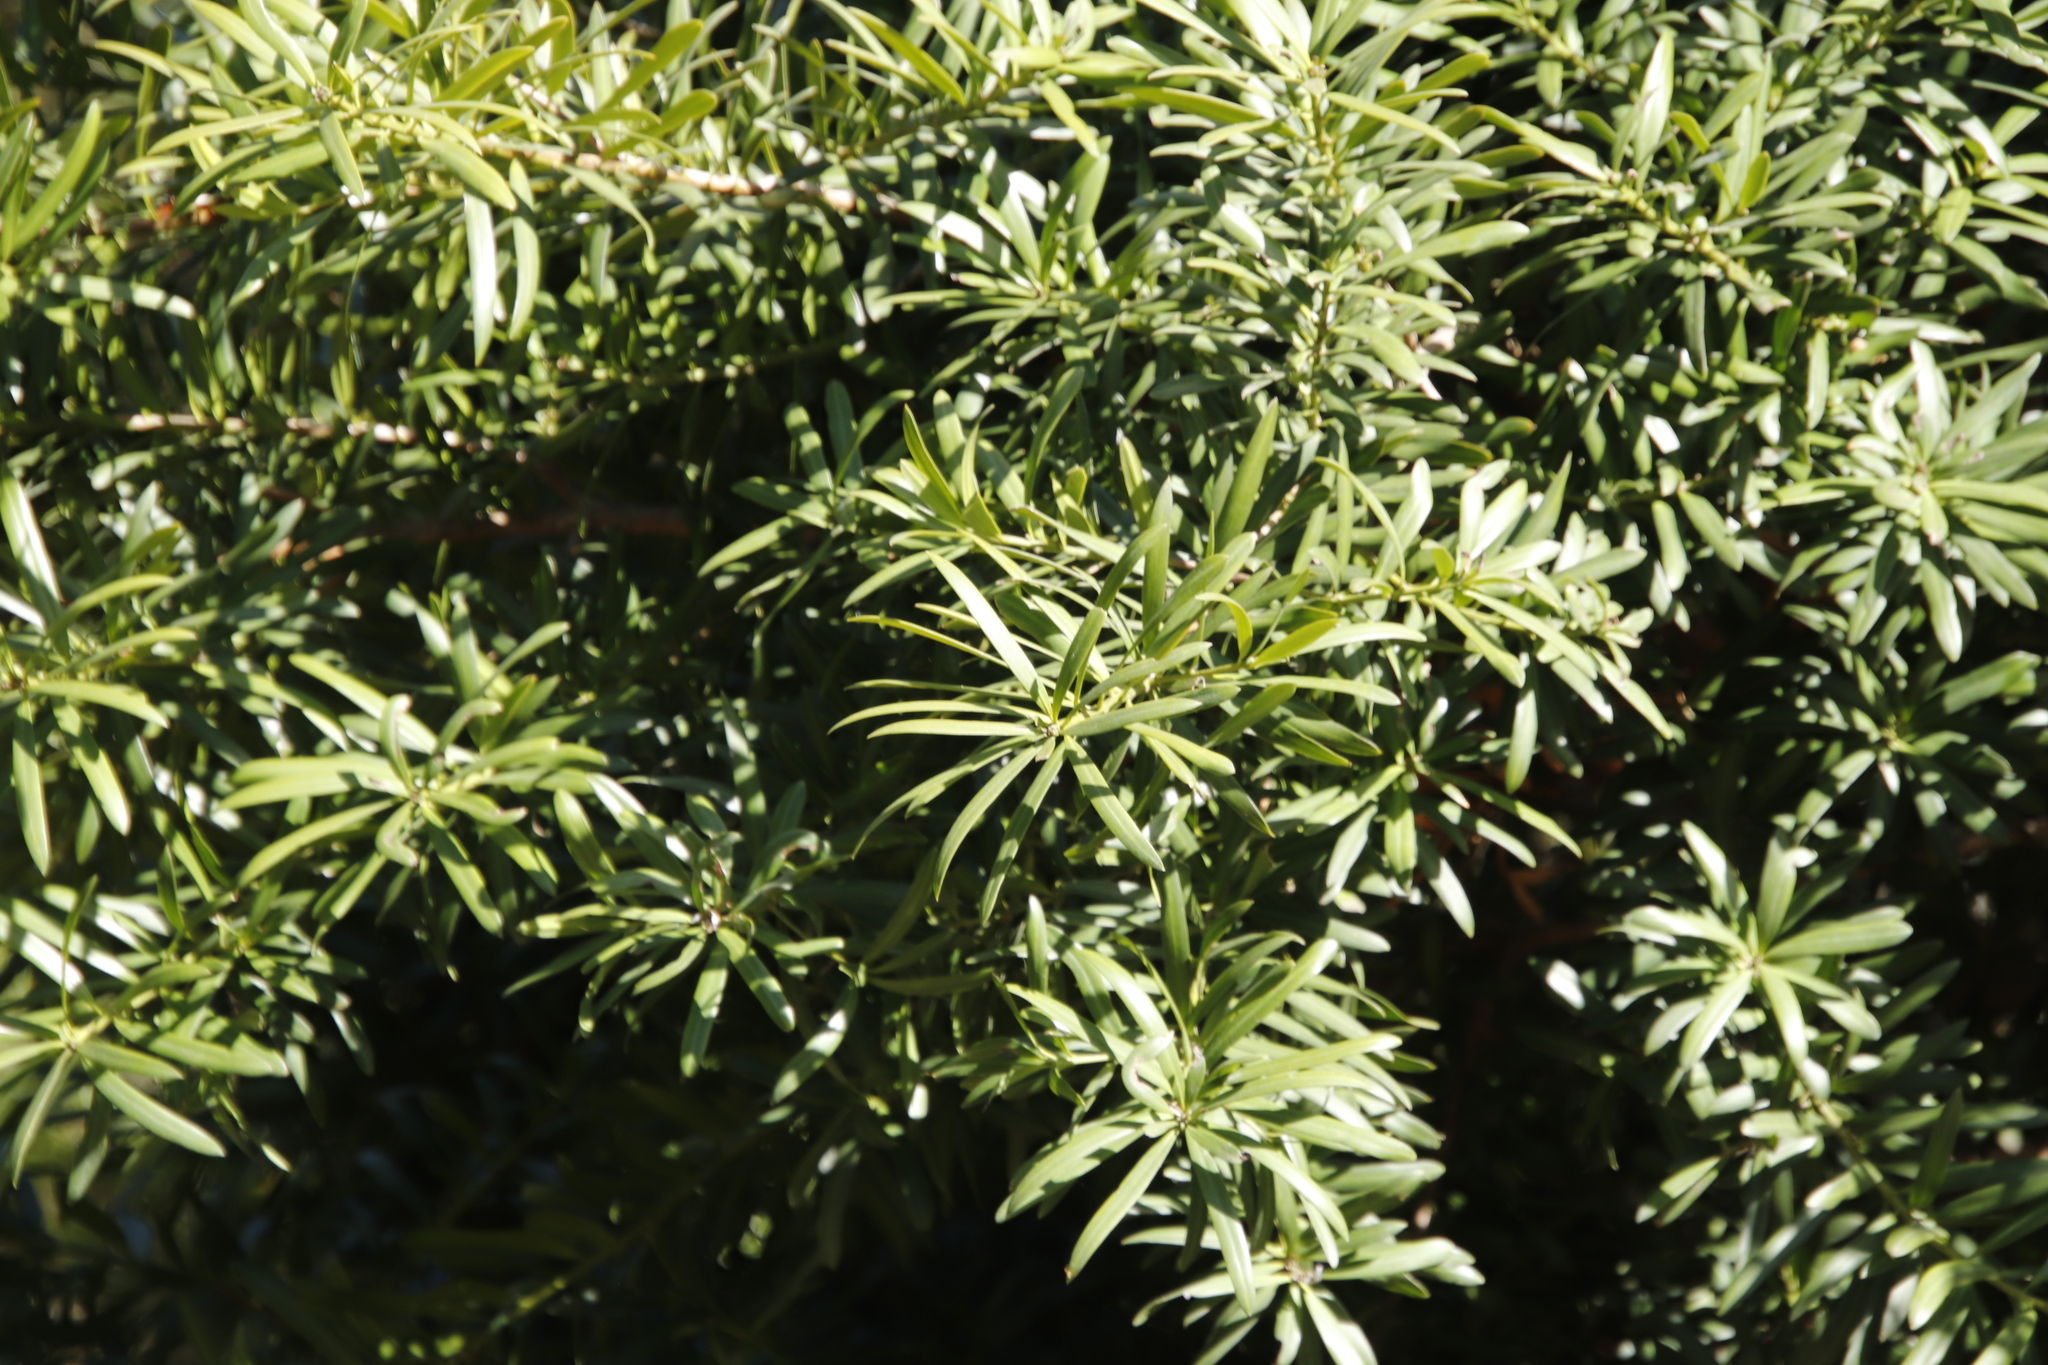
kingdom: Plantae
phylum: Tracheophyta
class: Pinopsida
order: Pinales
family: Podocarpaceae
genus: Podocarpus
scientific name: Podocarpus latifolius
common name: True yellowwood
